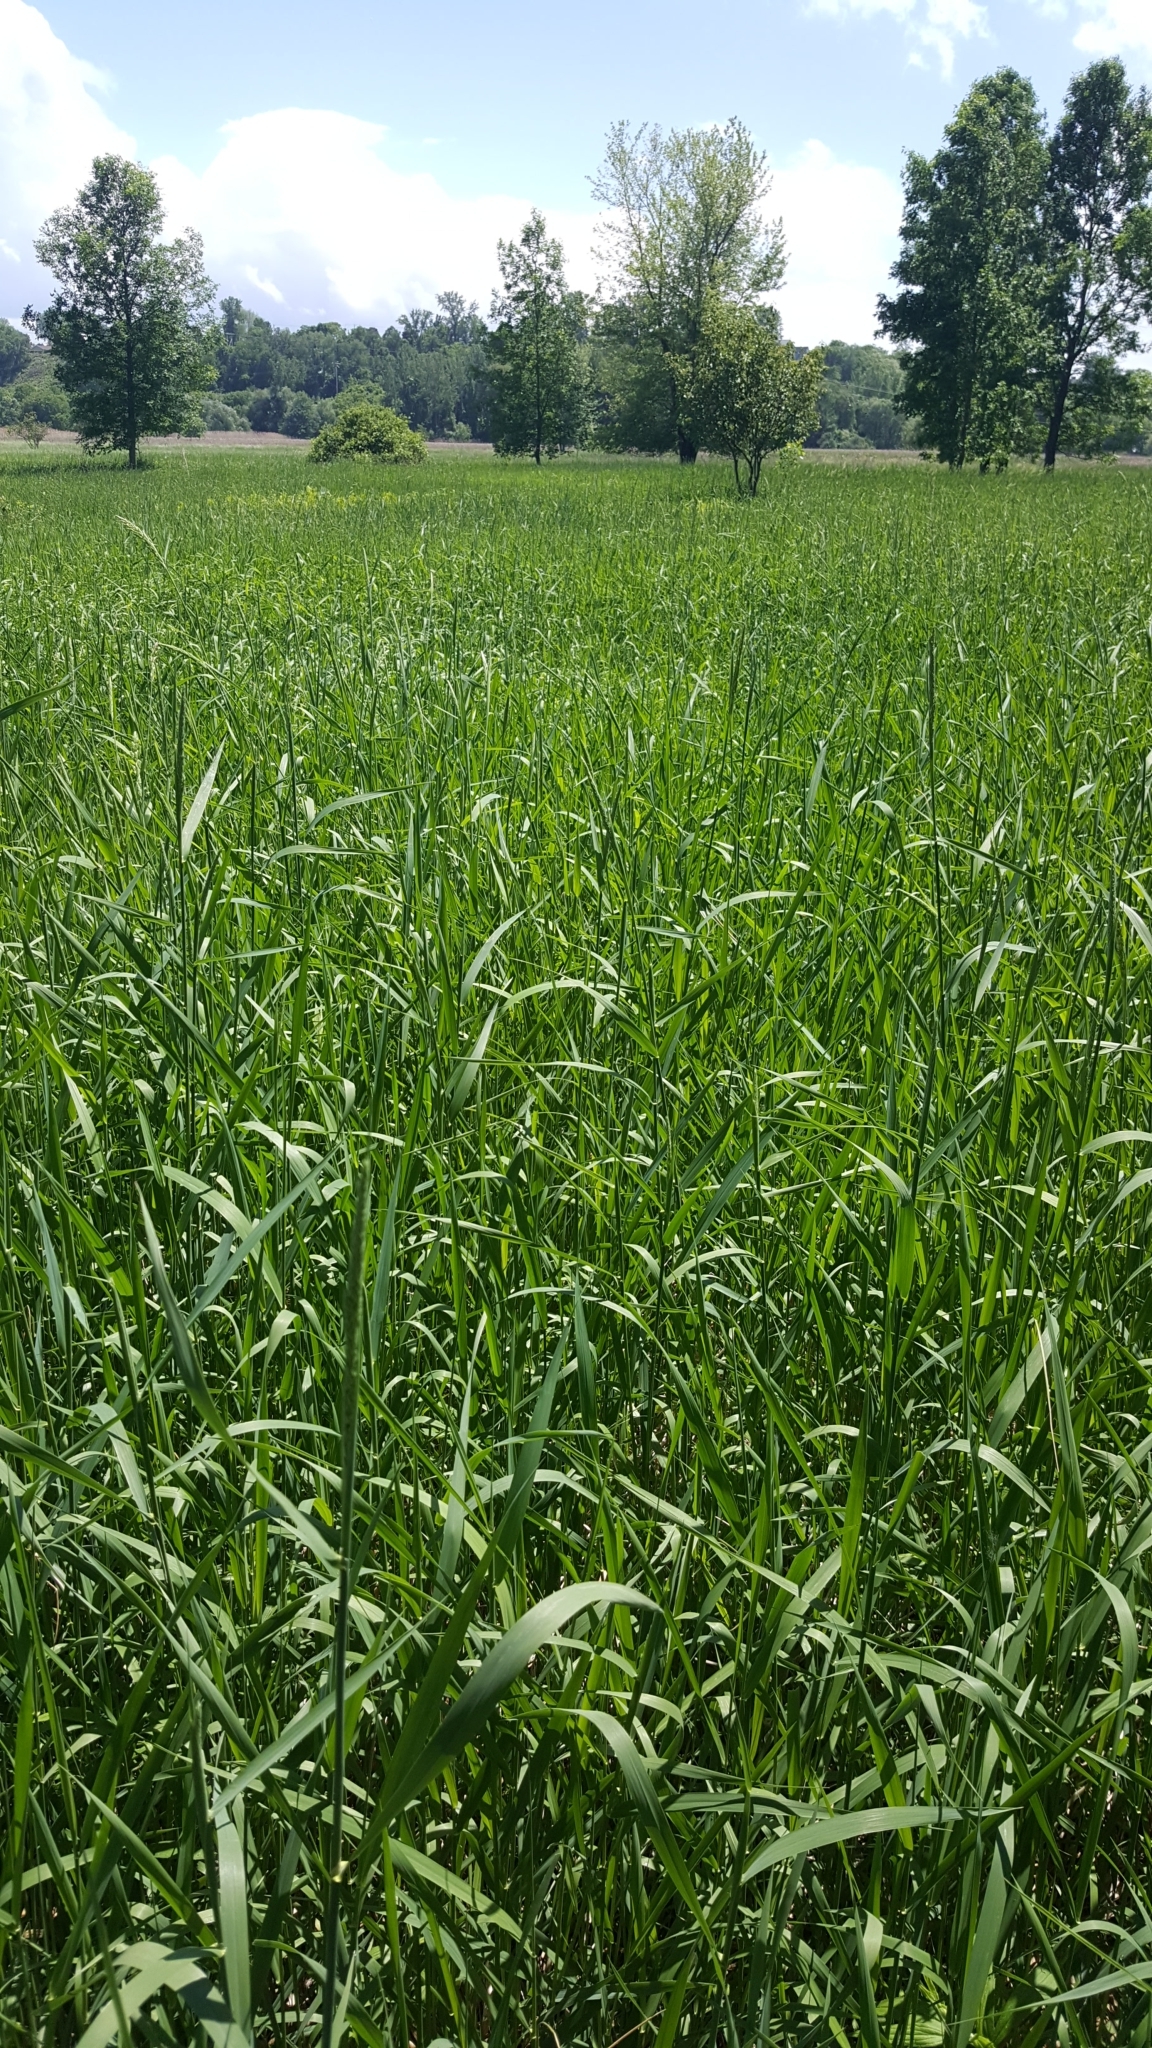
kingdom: Plantae
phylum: Tracheophyta
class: Liliopsida
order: Poales
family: Poaceae
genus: Phalaris
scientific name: Phalaris arundinacea
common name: Reed canary-grass
